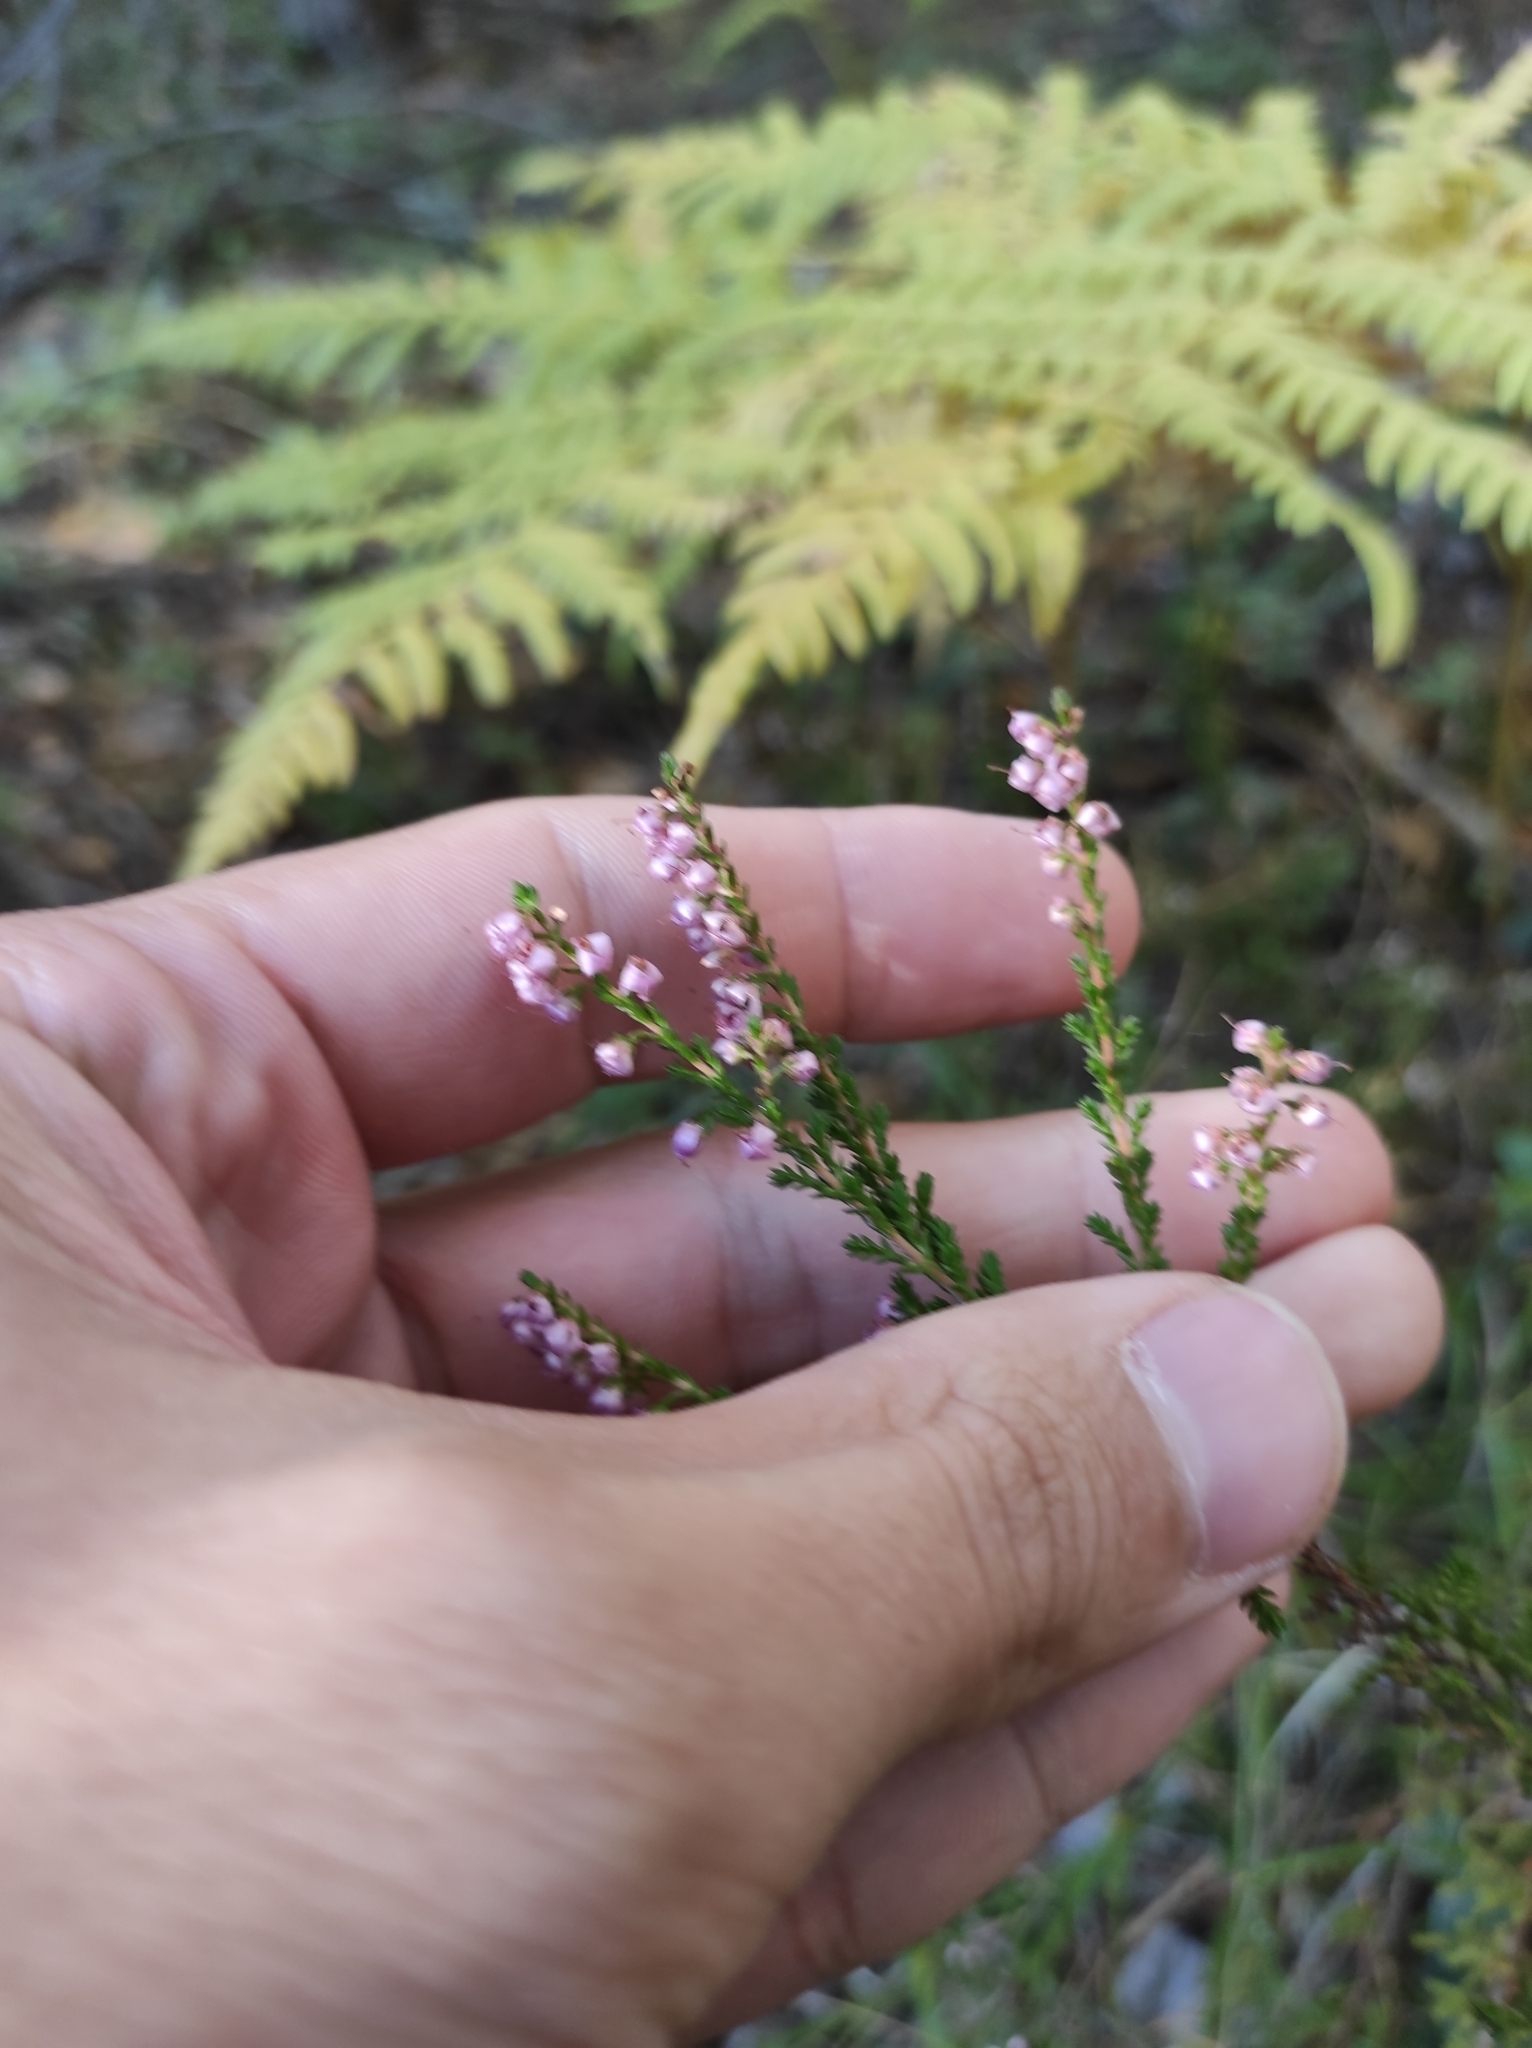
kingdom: Plantae
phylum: Tracheophyta
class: Magnoliopsida
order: Ericales
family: Ericaceae
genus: Calluna
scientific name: Calluna vulgaris
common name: Heather
